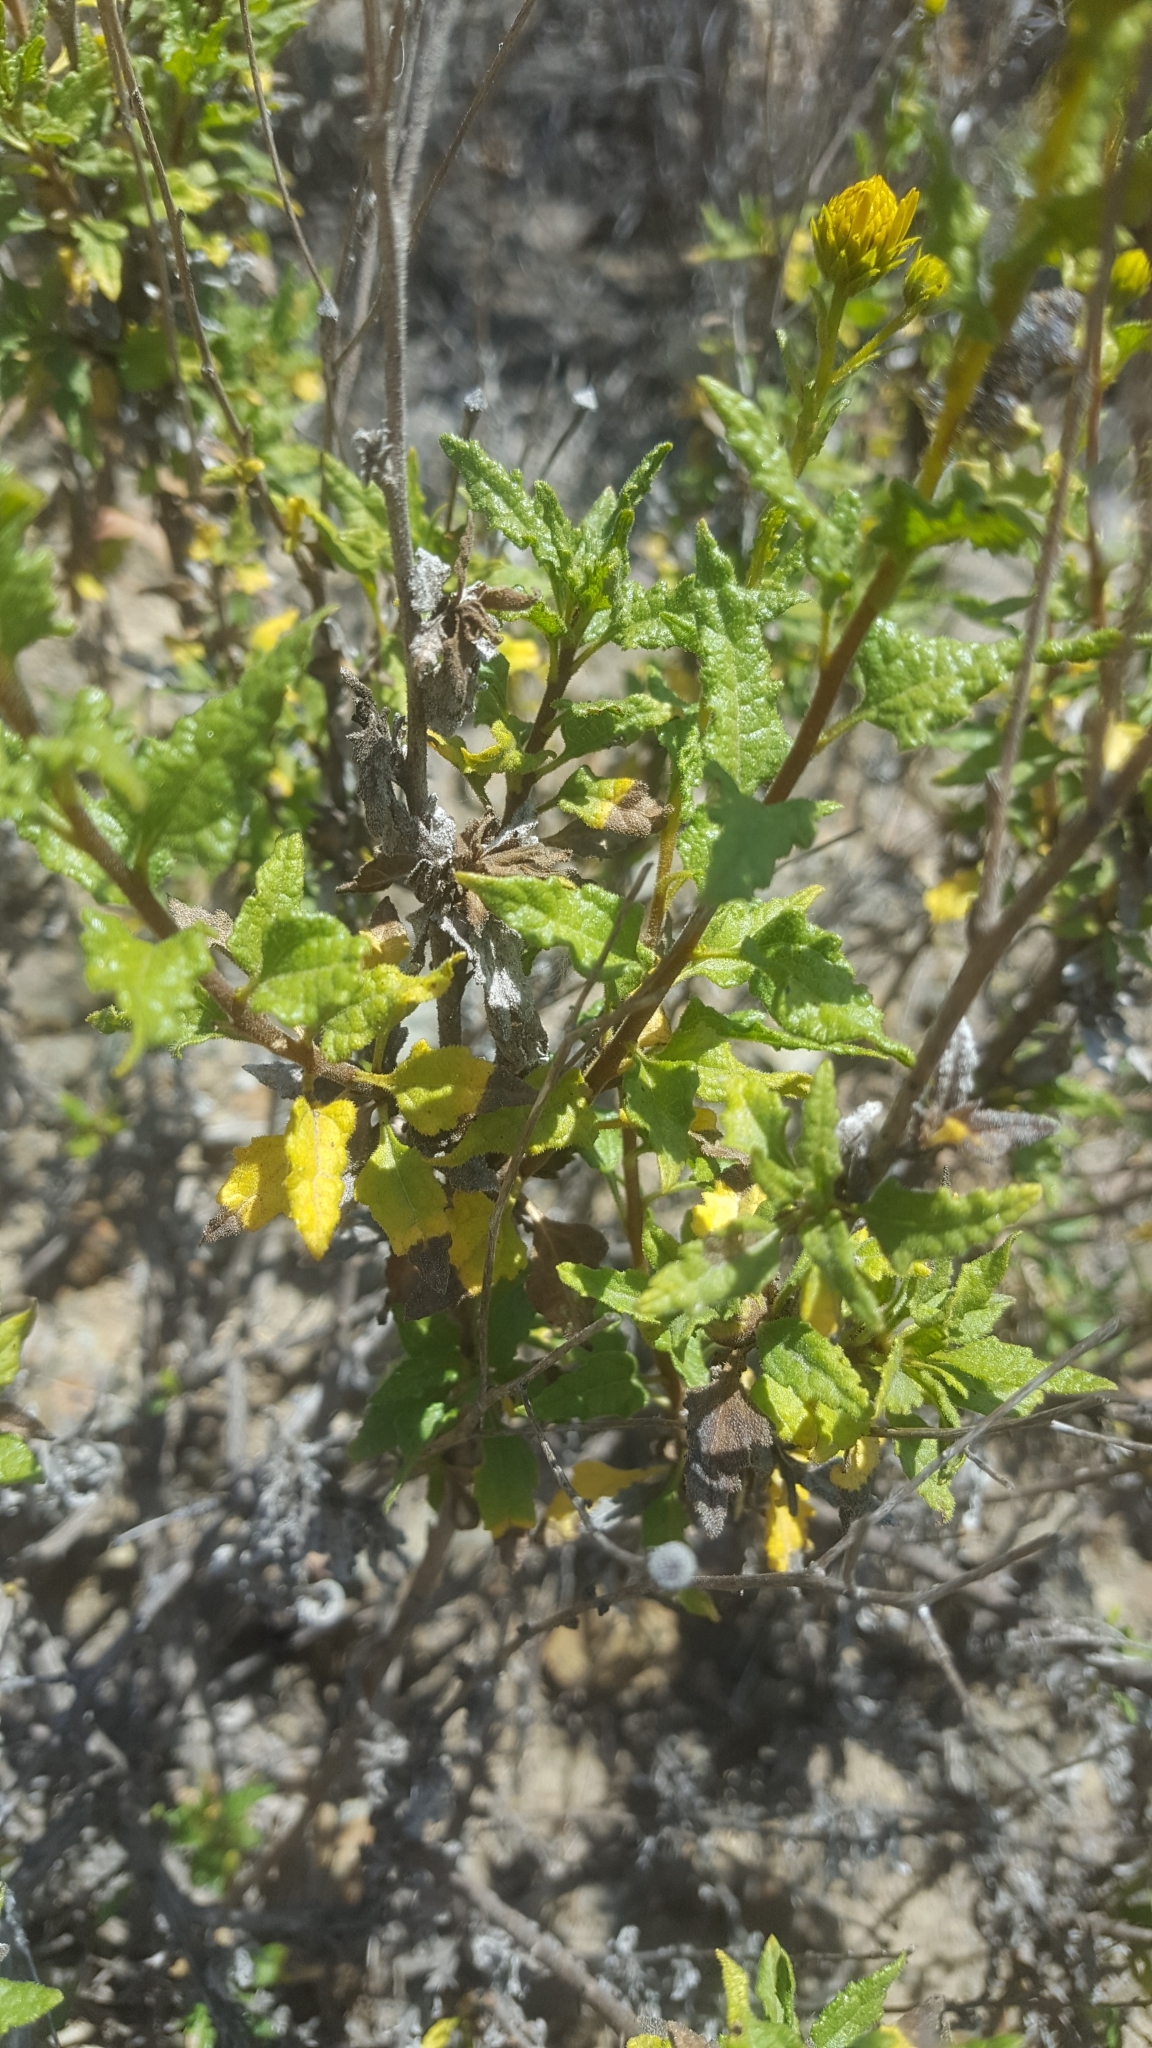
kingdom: Plantae
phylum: Tracheophyta
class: Magnoliopsida
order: Asterales
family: Asteraceae
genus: Bahiopsis
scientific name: Bahiopsis laciniata
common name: San diego county viguiera
